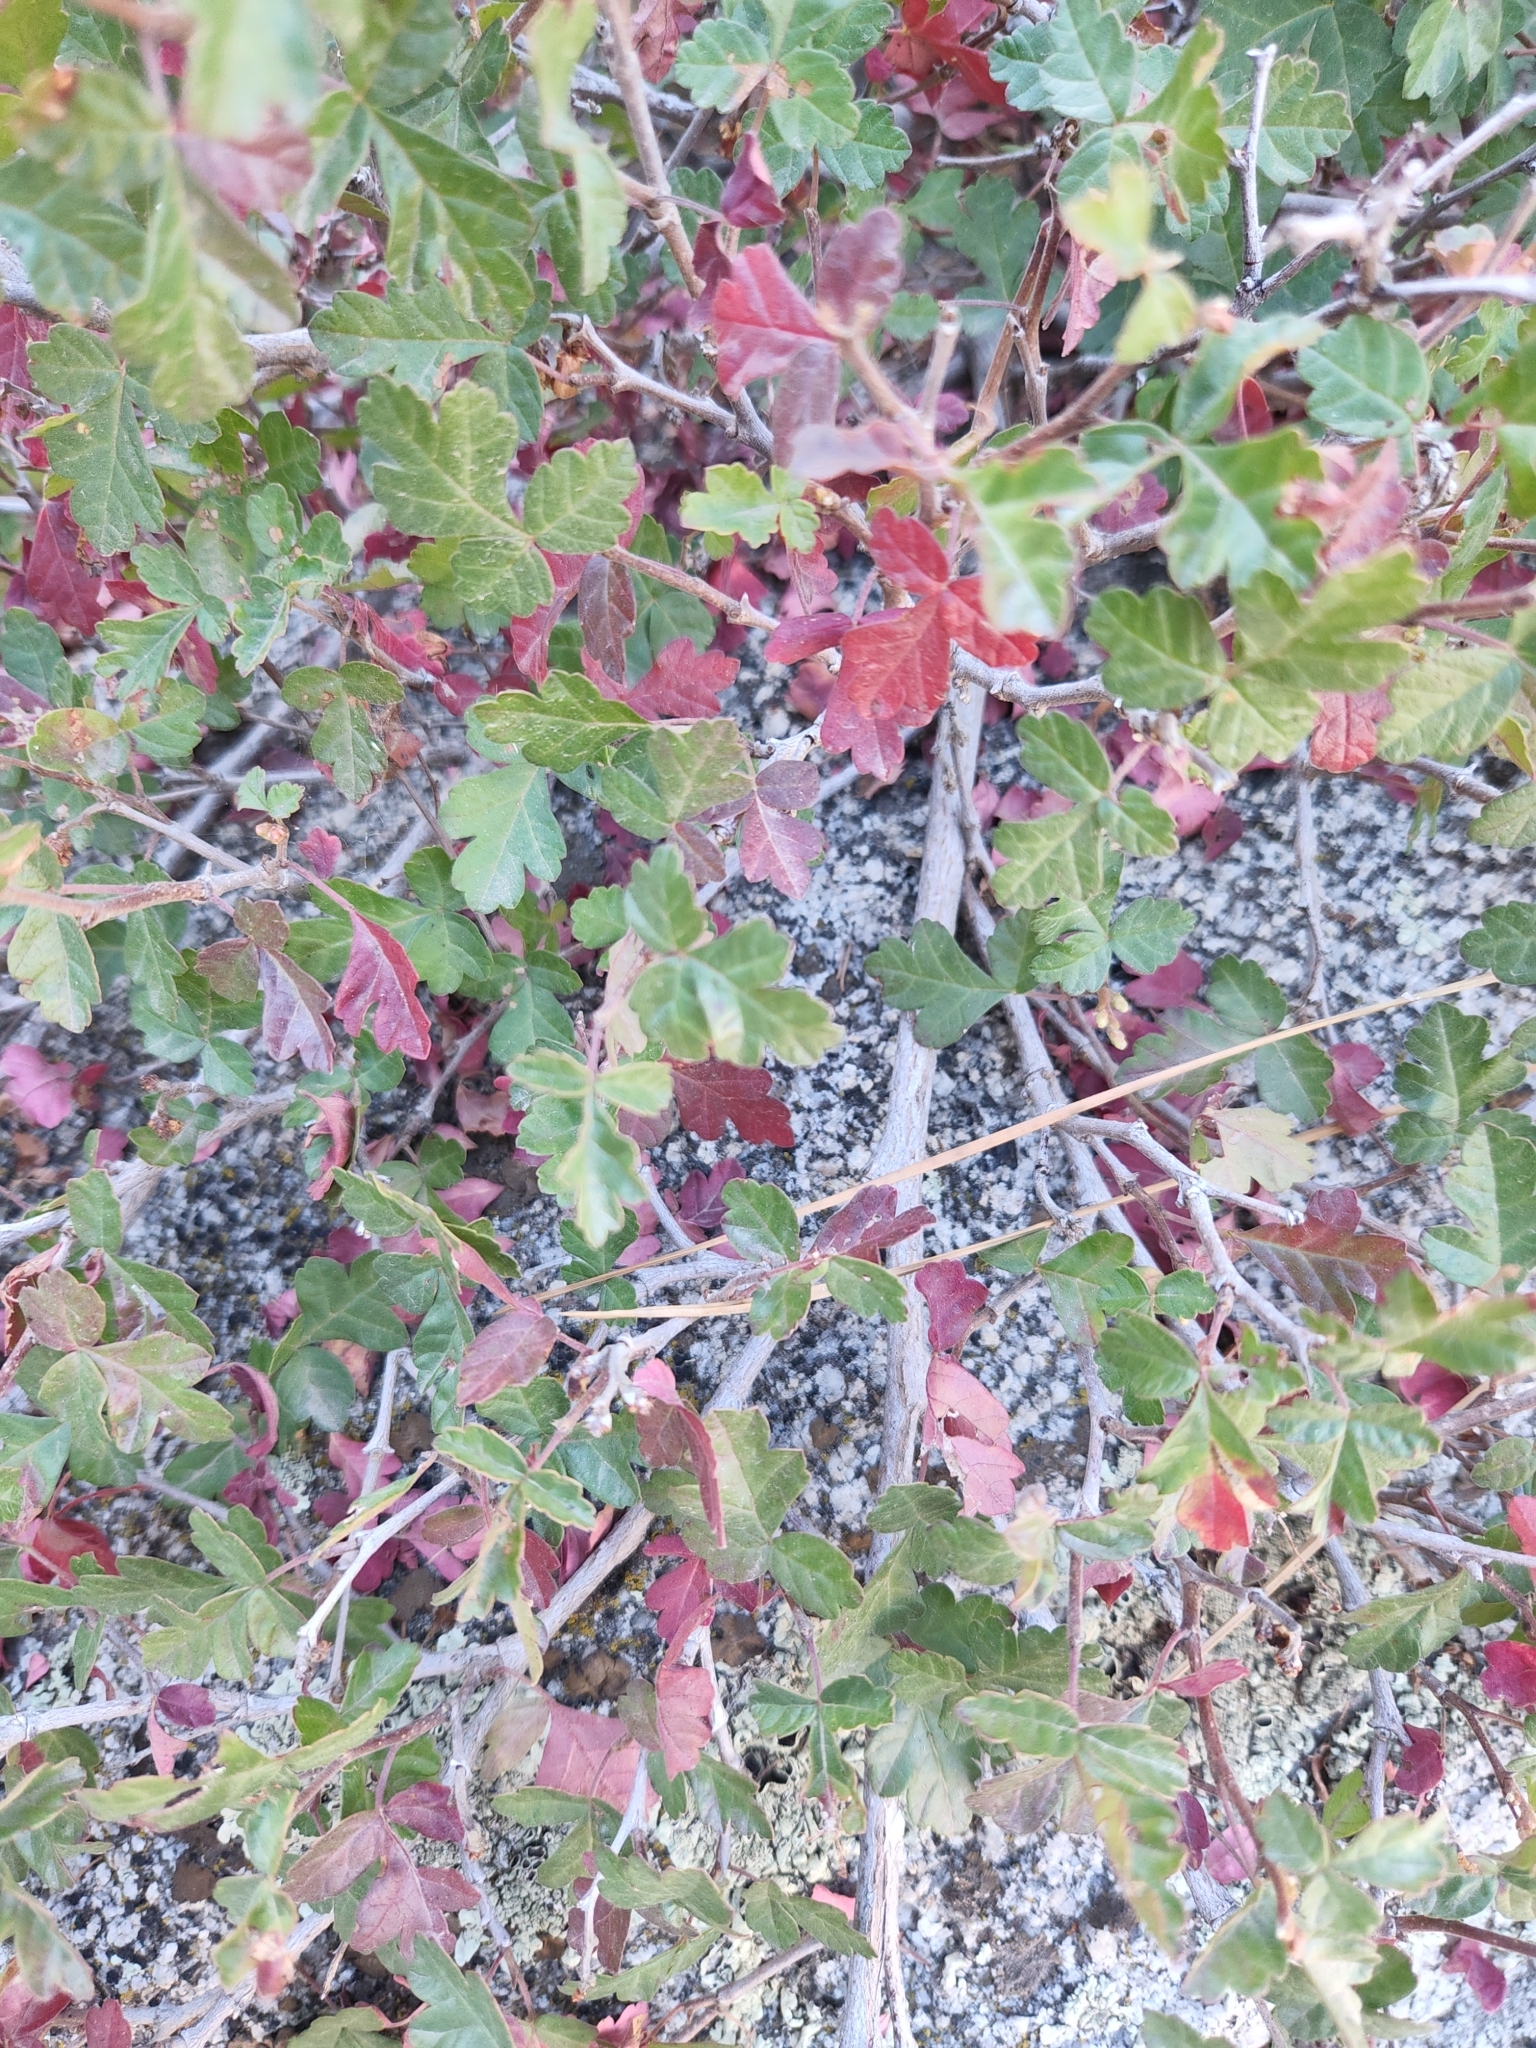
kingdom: Plantae
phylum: Tracheophyta
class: Magnoliopsida
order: Sapindales
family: Anacardiaceae
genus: Rhus
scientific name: Rhus aromatica
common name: Aromatic sumac
